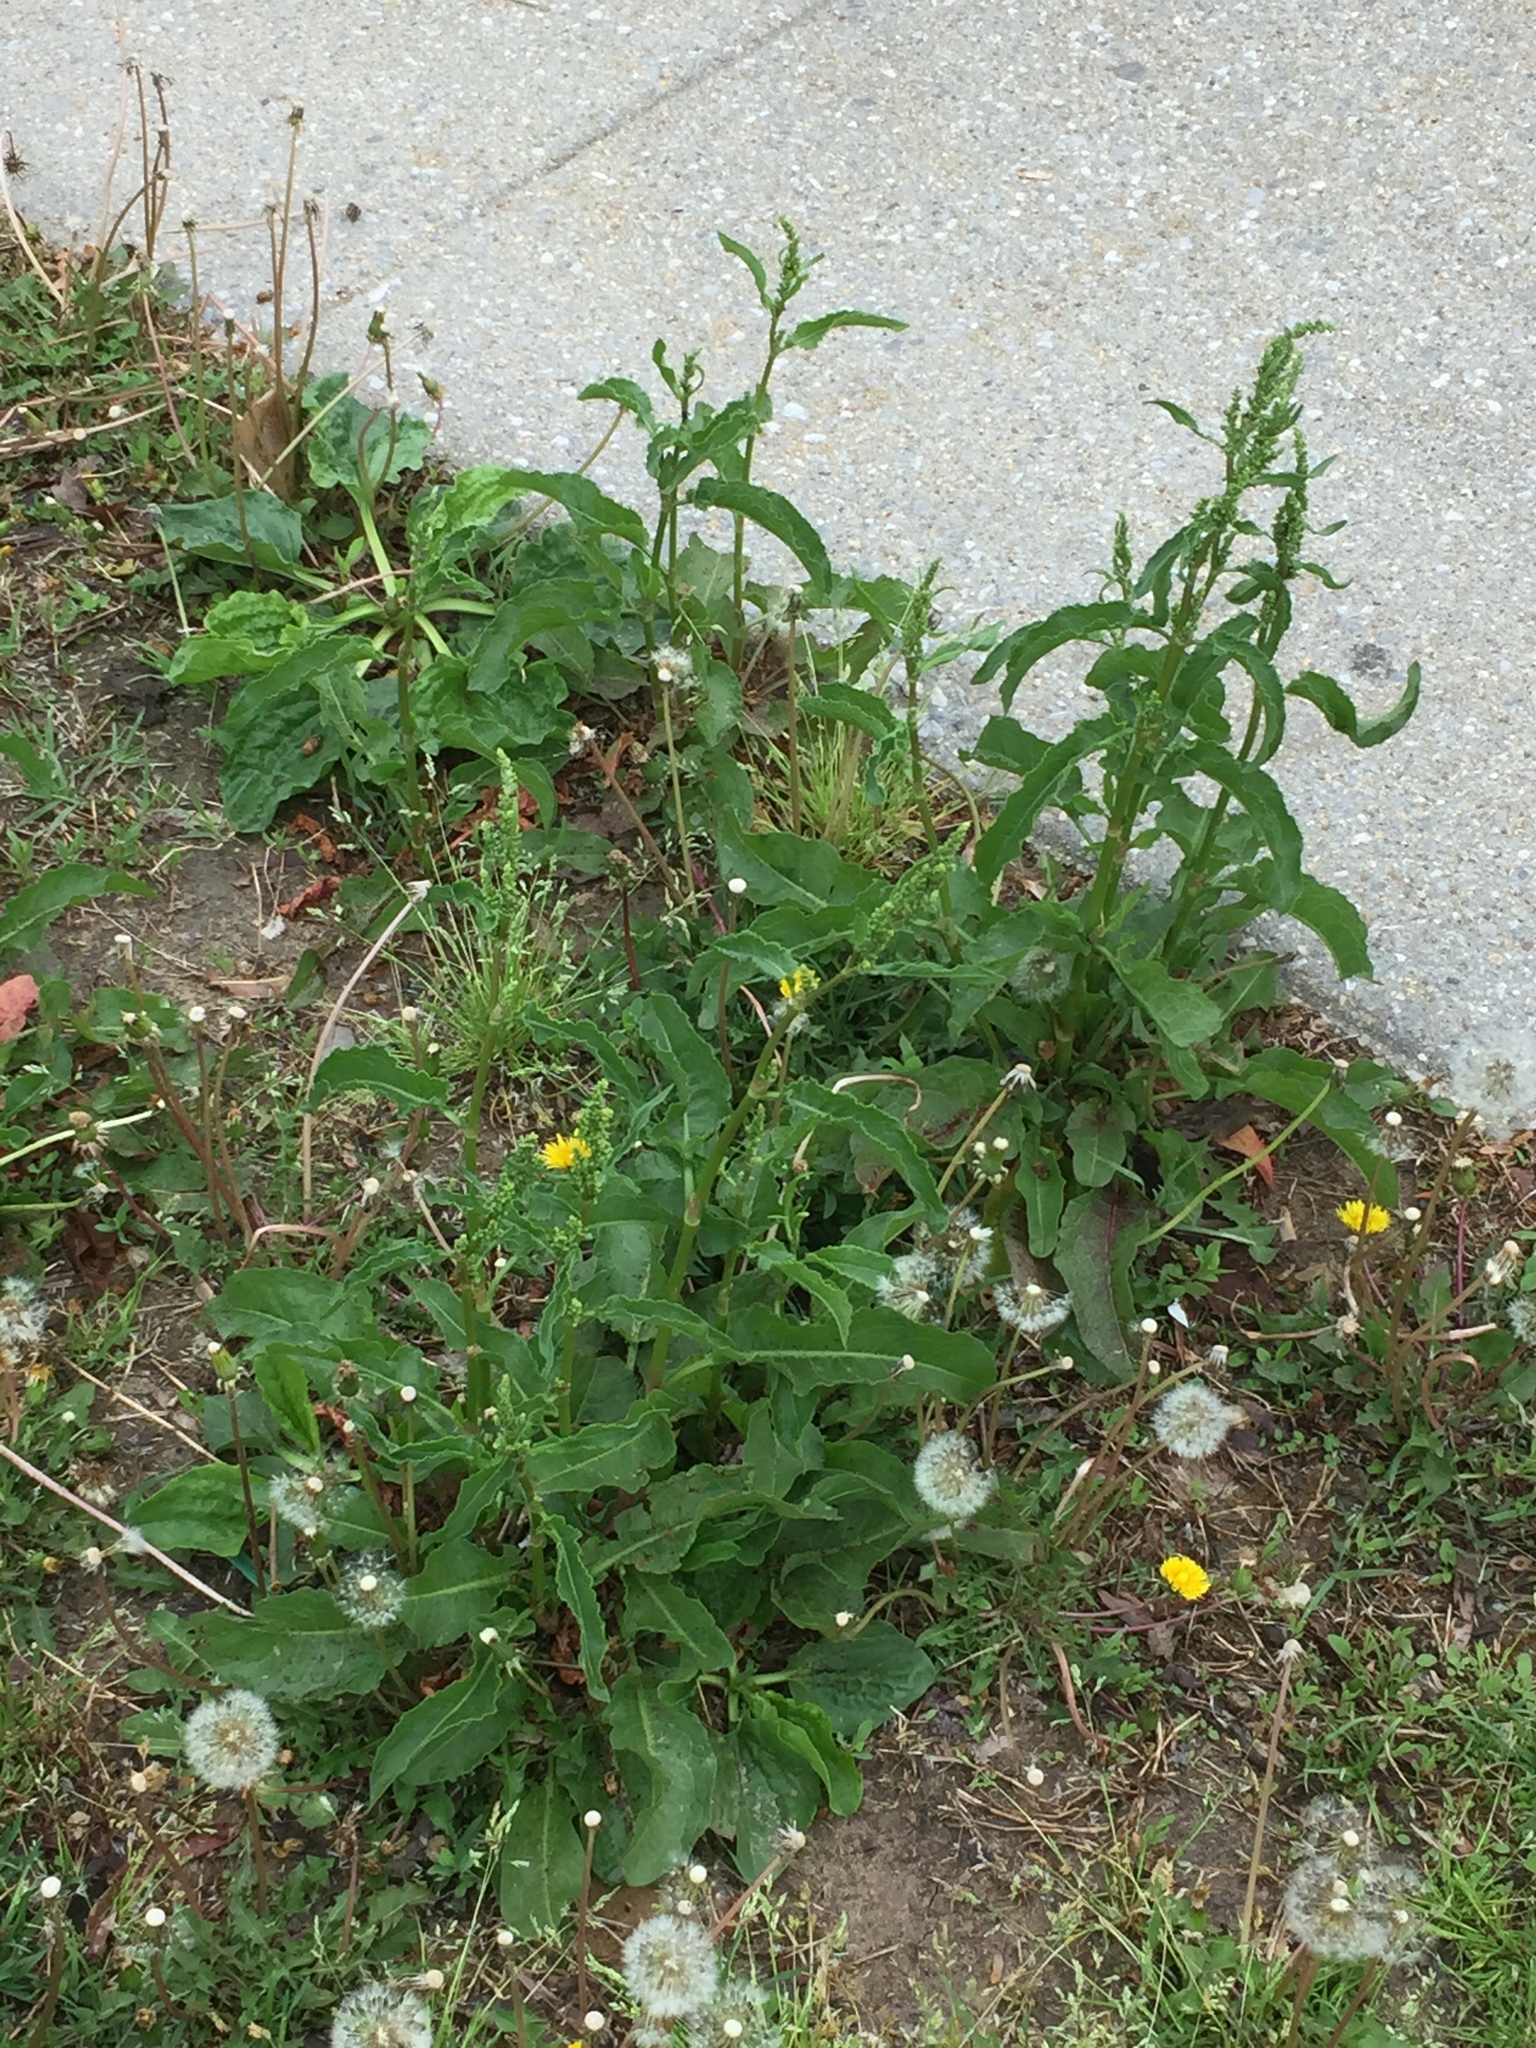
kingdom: Plantae
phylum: Tracheophyta
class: Magnoliopsida
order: Caryophyllales
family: Polygonaceae
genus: Rumex
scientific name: Rumex crispus
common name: Curled dock
